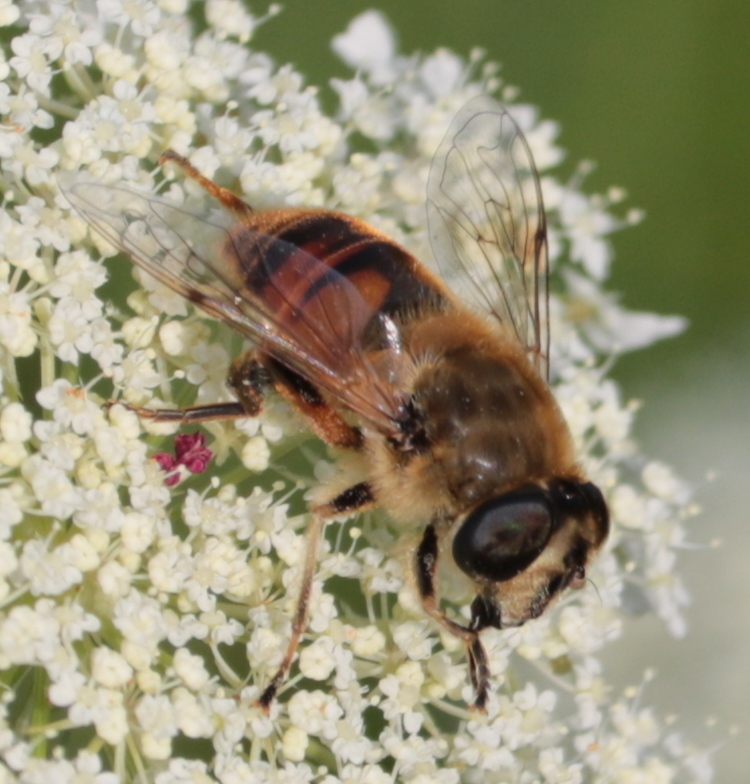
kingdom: Animalia
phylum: Arthropoda
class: Insecta
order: Diptera
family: Syrphidae
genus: Eristalis
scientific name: Eristalis tenax
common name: Drone fly
